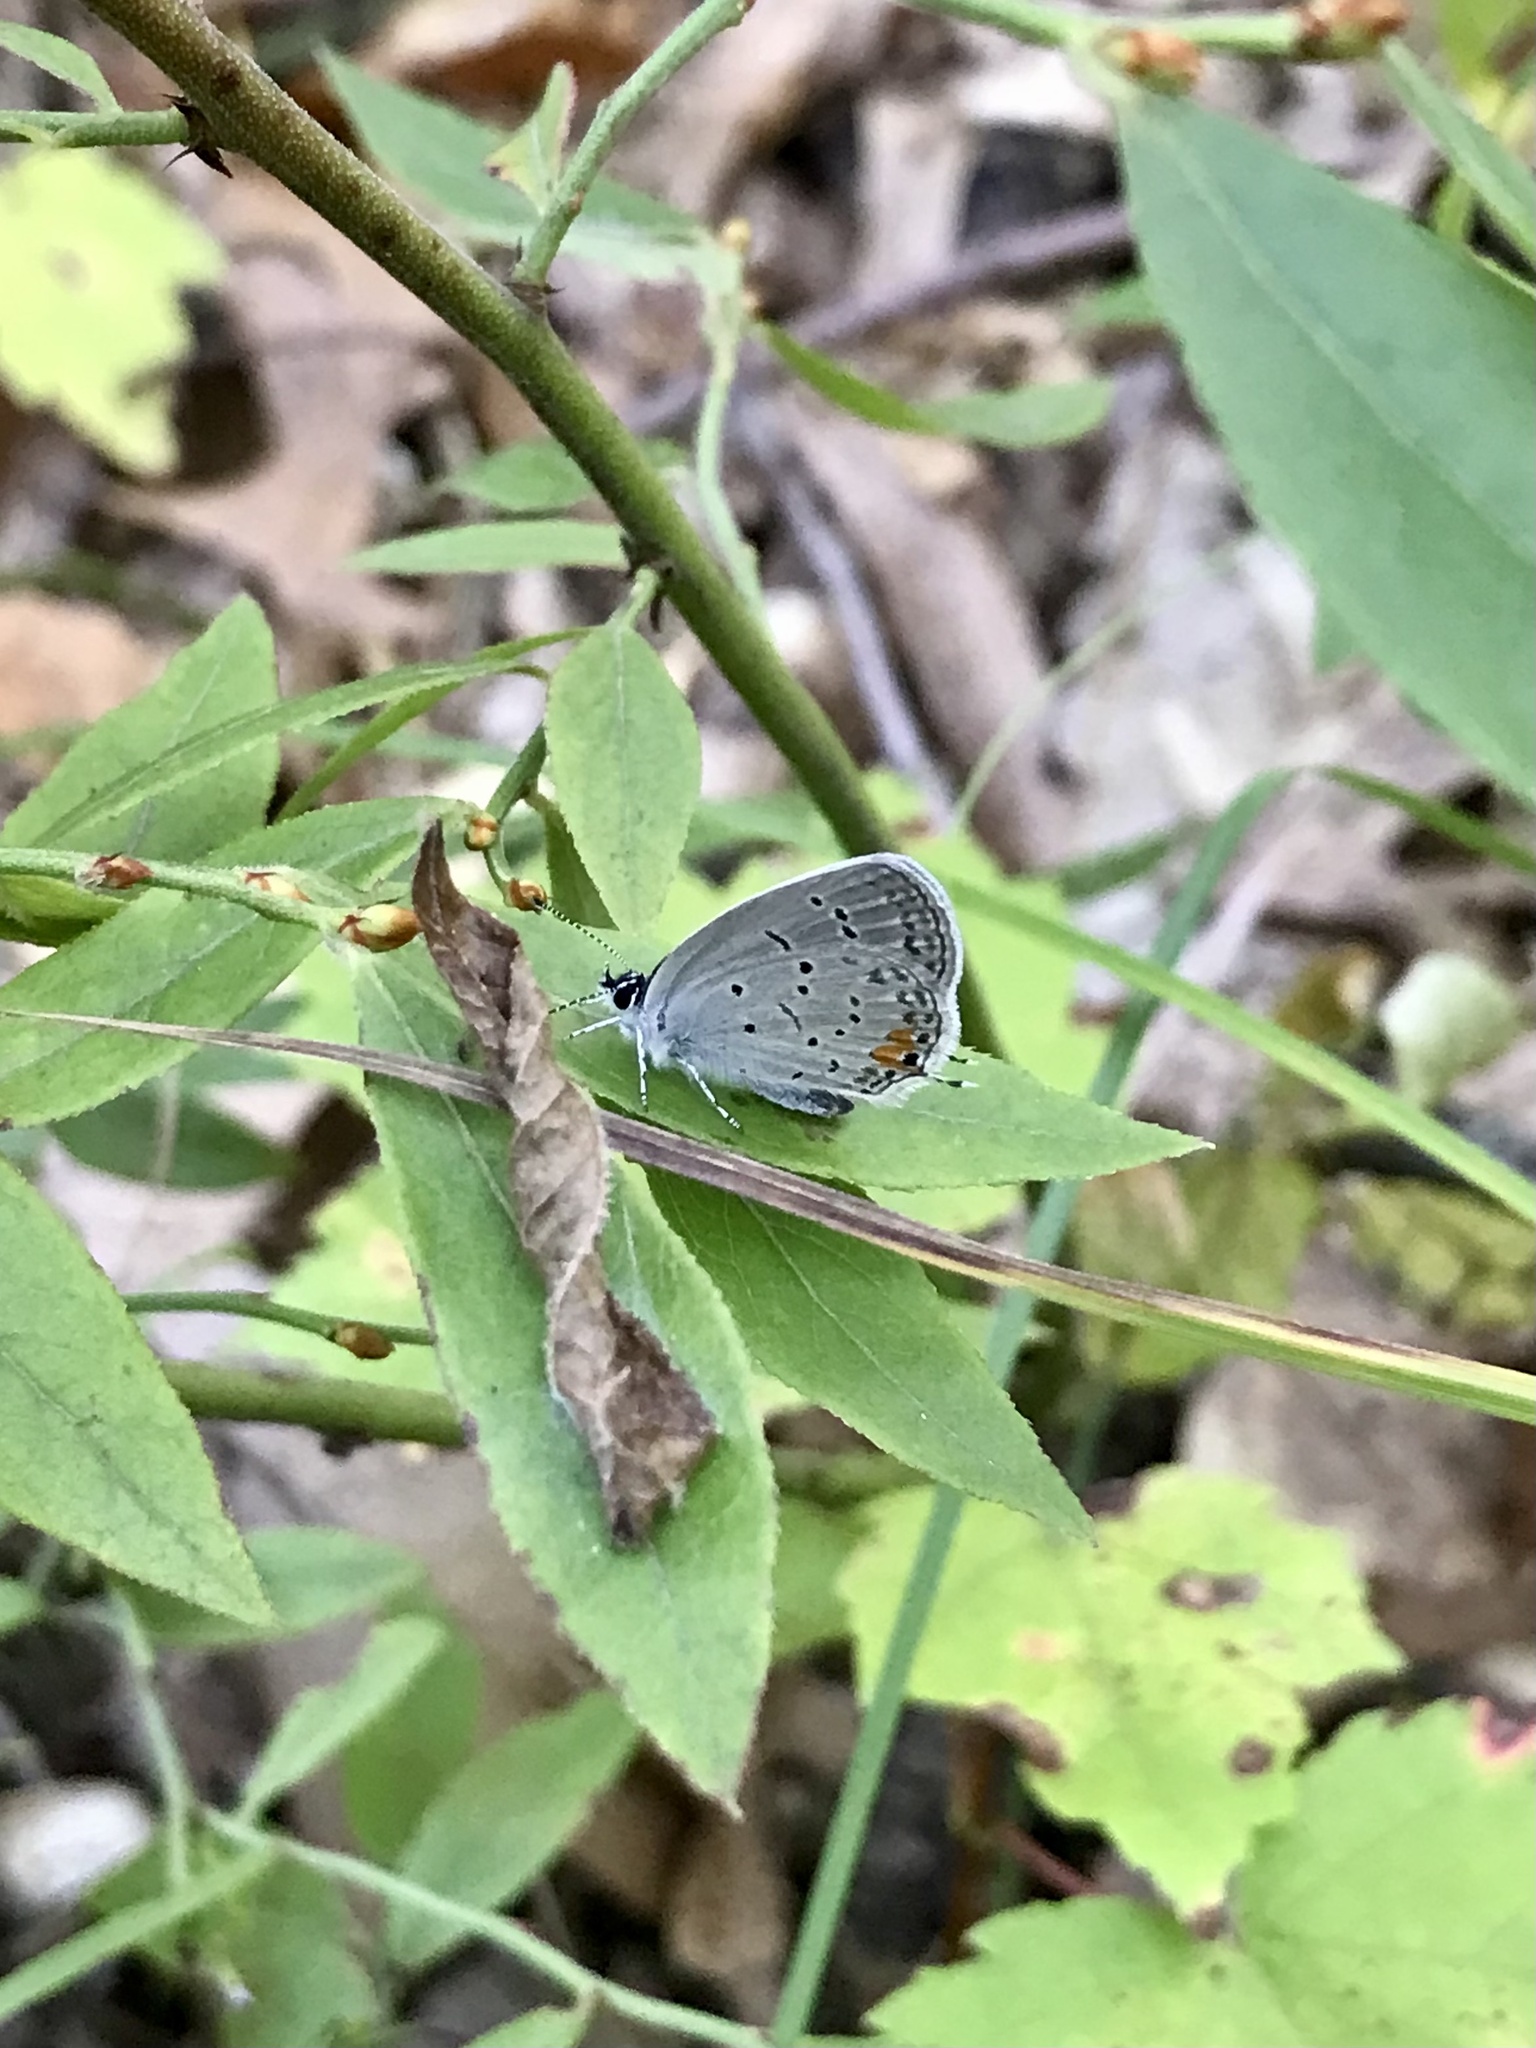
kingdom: Animalia
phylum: Arthropoda
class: Insecta
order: Lepidoptera
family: Lycaenidae
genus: Elkalyce
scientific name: Elkalyce comyntas
